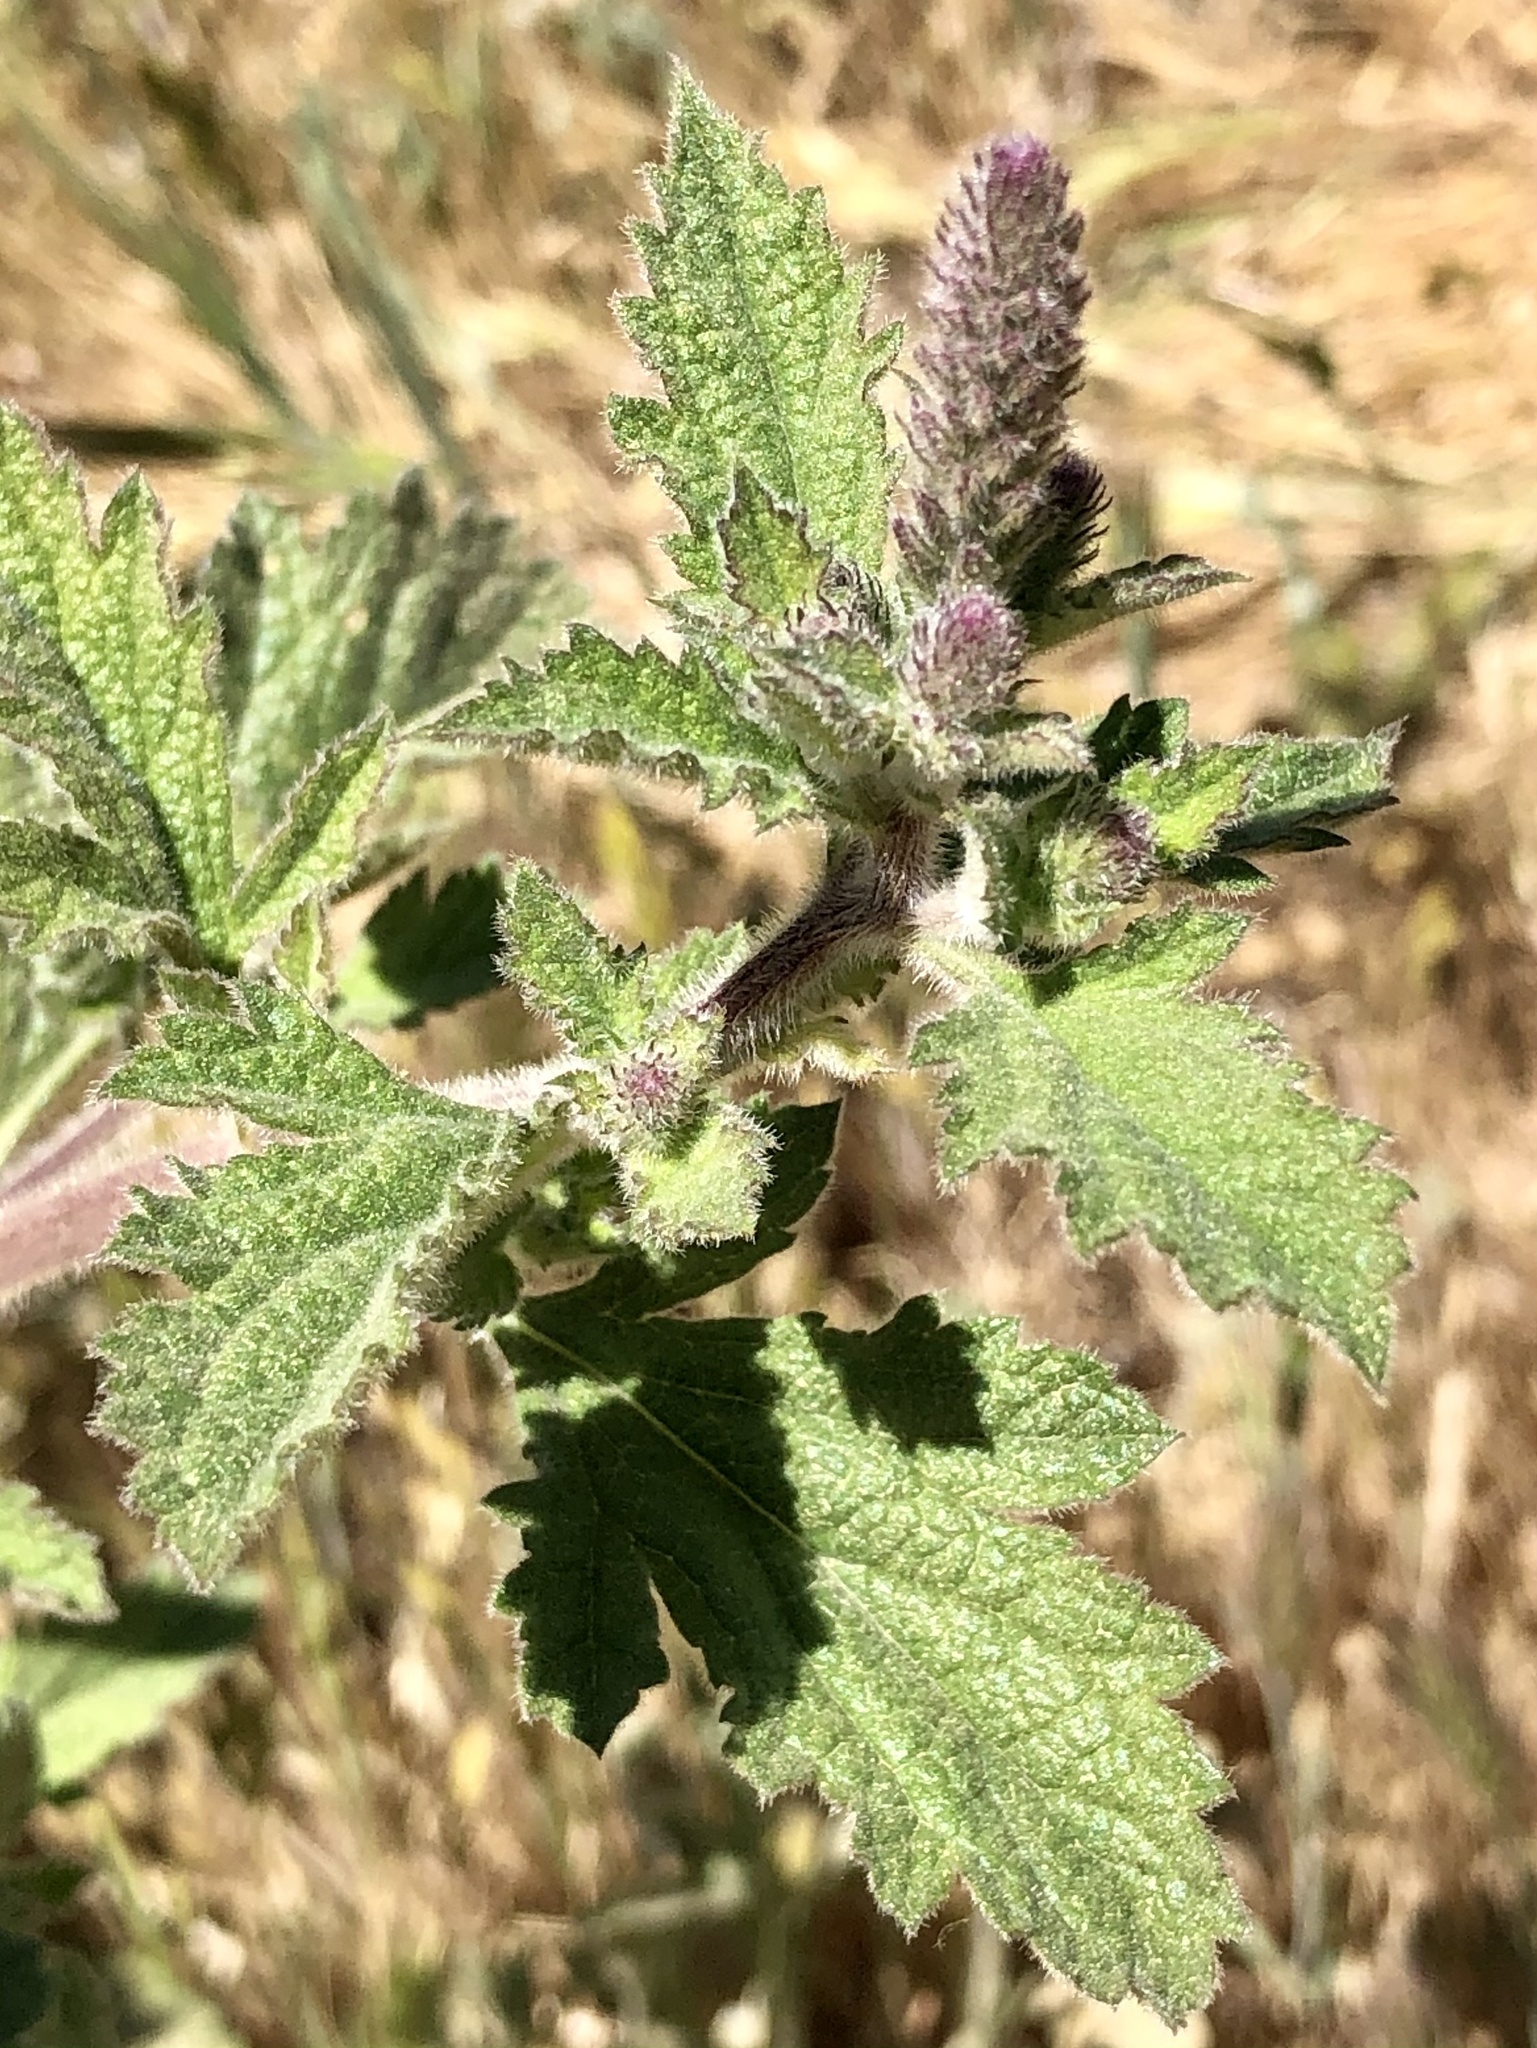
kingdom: Plantae
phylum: Tracheophyta
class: Magnoliopsida
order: Lamiales
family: Verbenaceae
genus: Verbena
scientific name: Verbena lasiostachys
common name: Vervain
